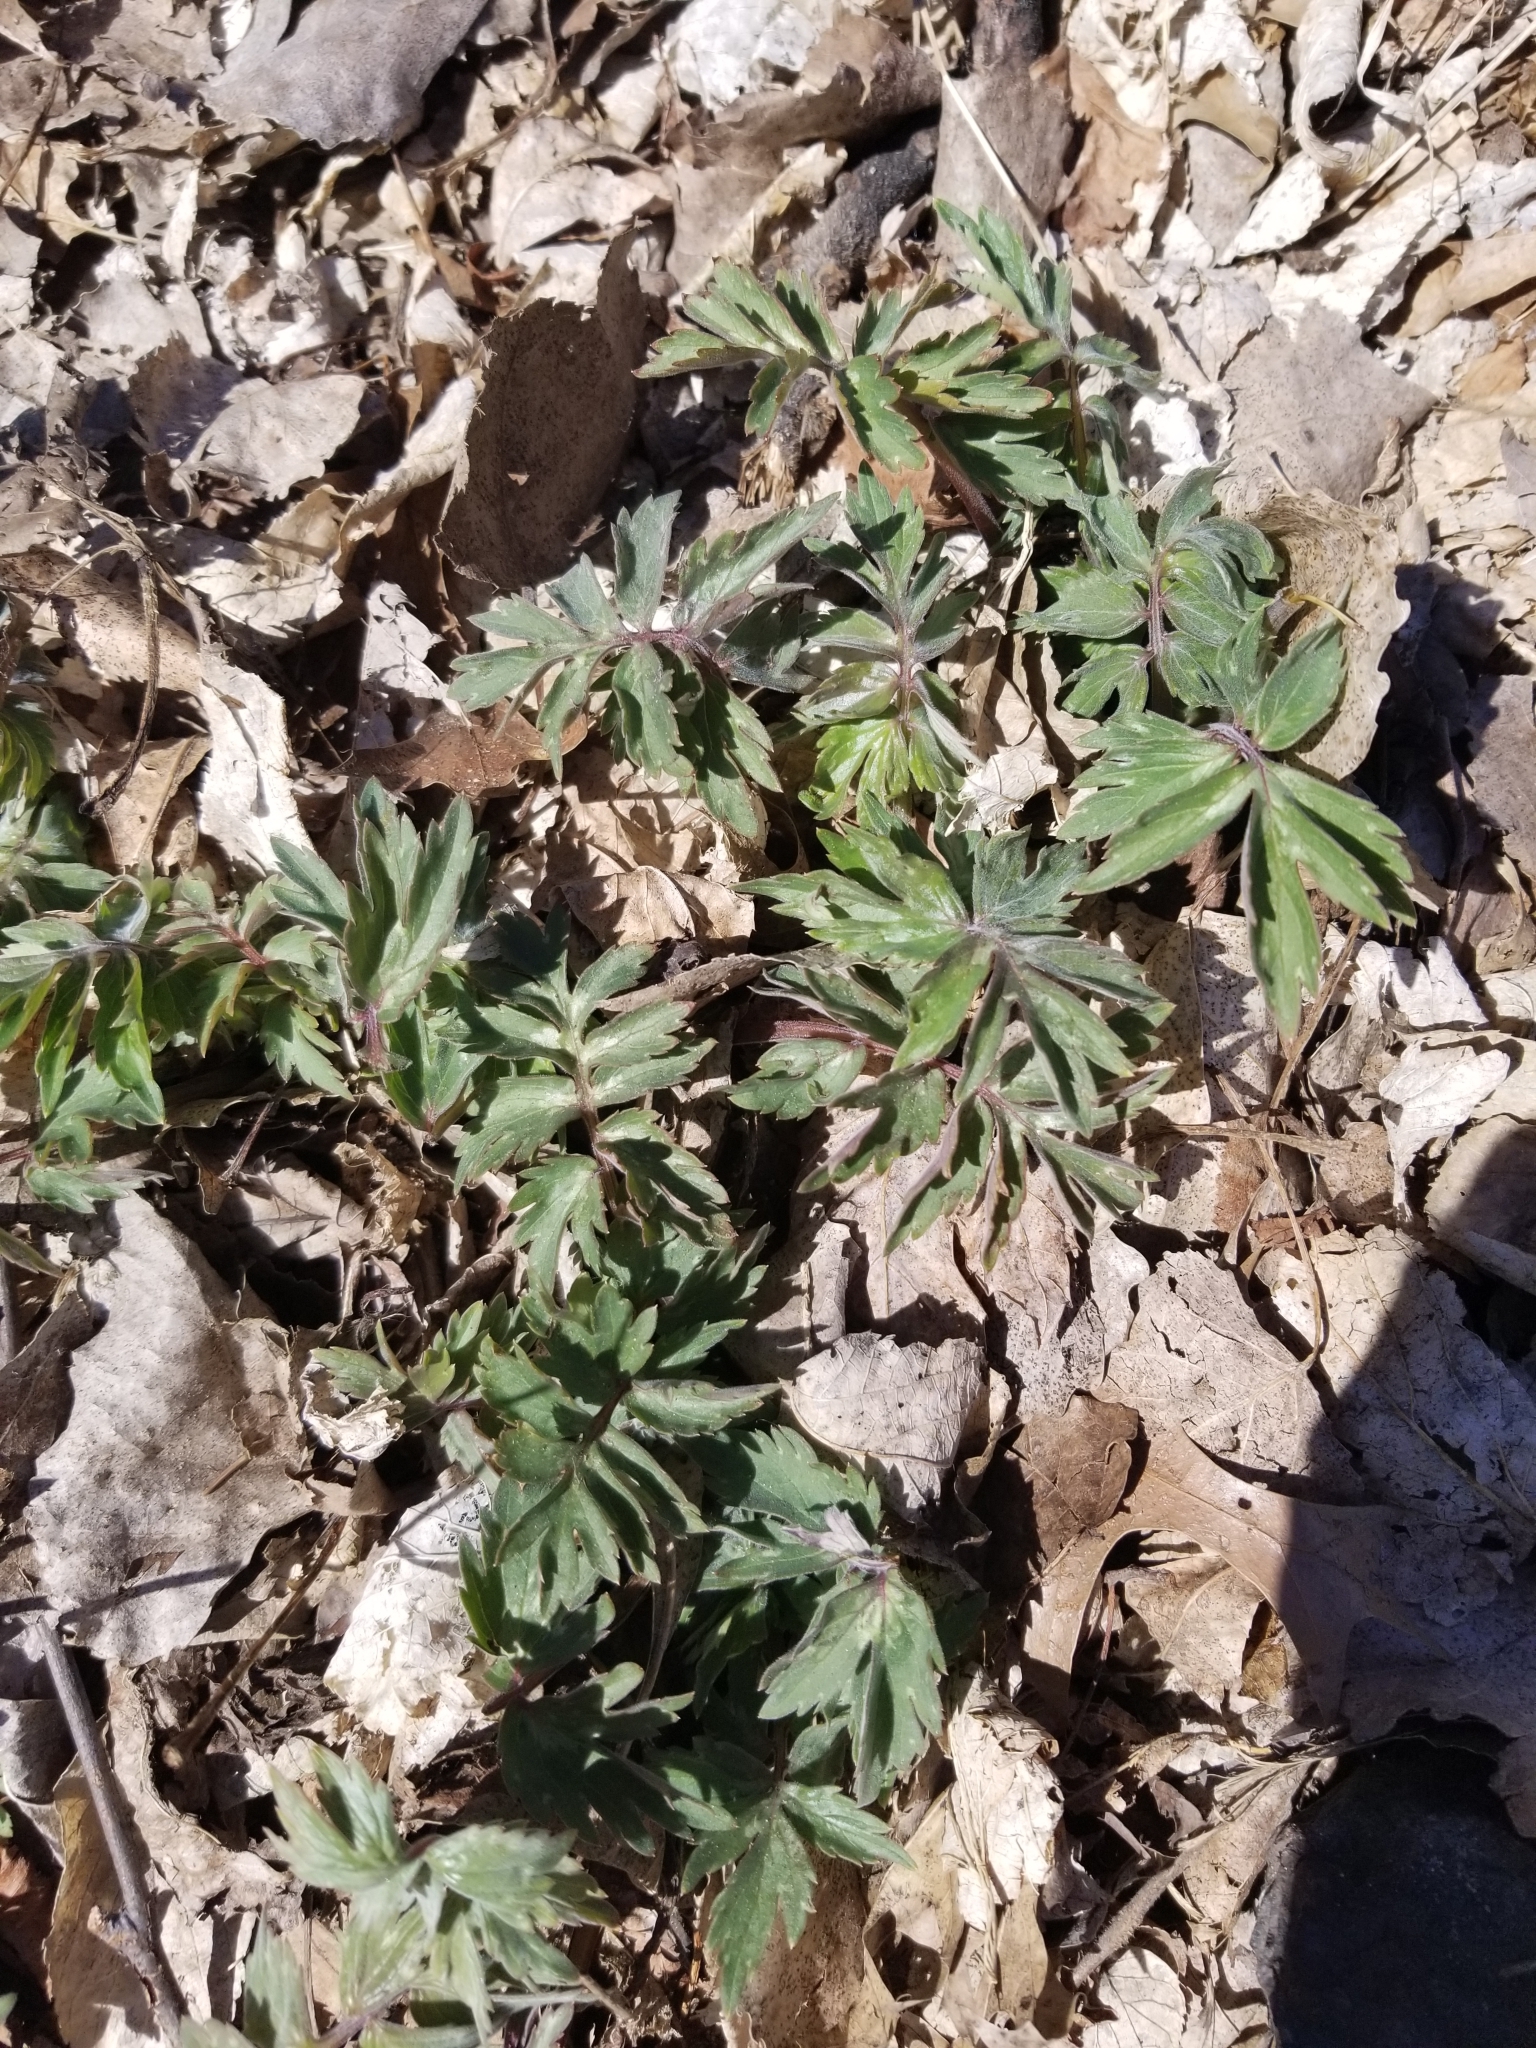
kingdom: Plantae
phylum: Tracheophyta
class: Magnoliopsida
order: Boraginales
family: Hydrophyllaceae
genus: Hydrophyllum
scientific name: Hydrophyllum virginianum
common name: Virginia waterleaf
